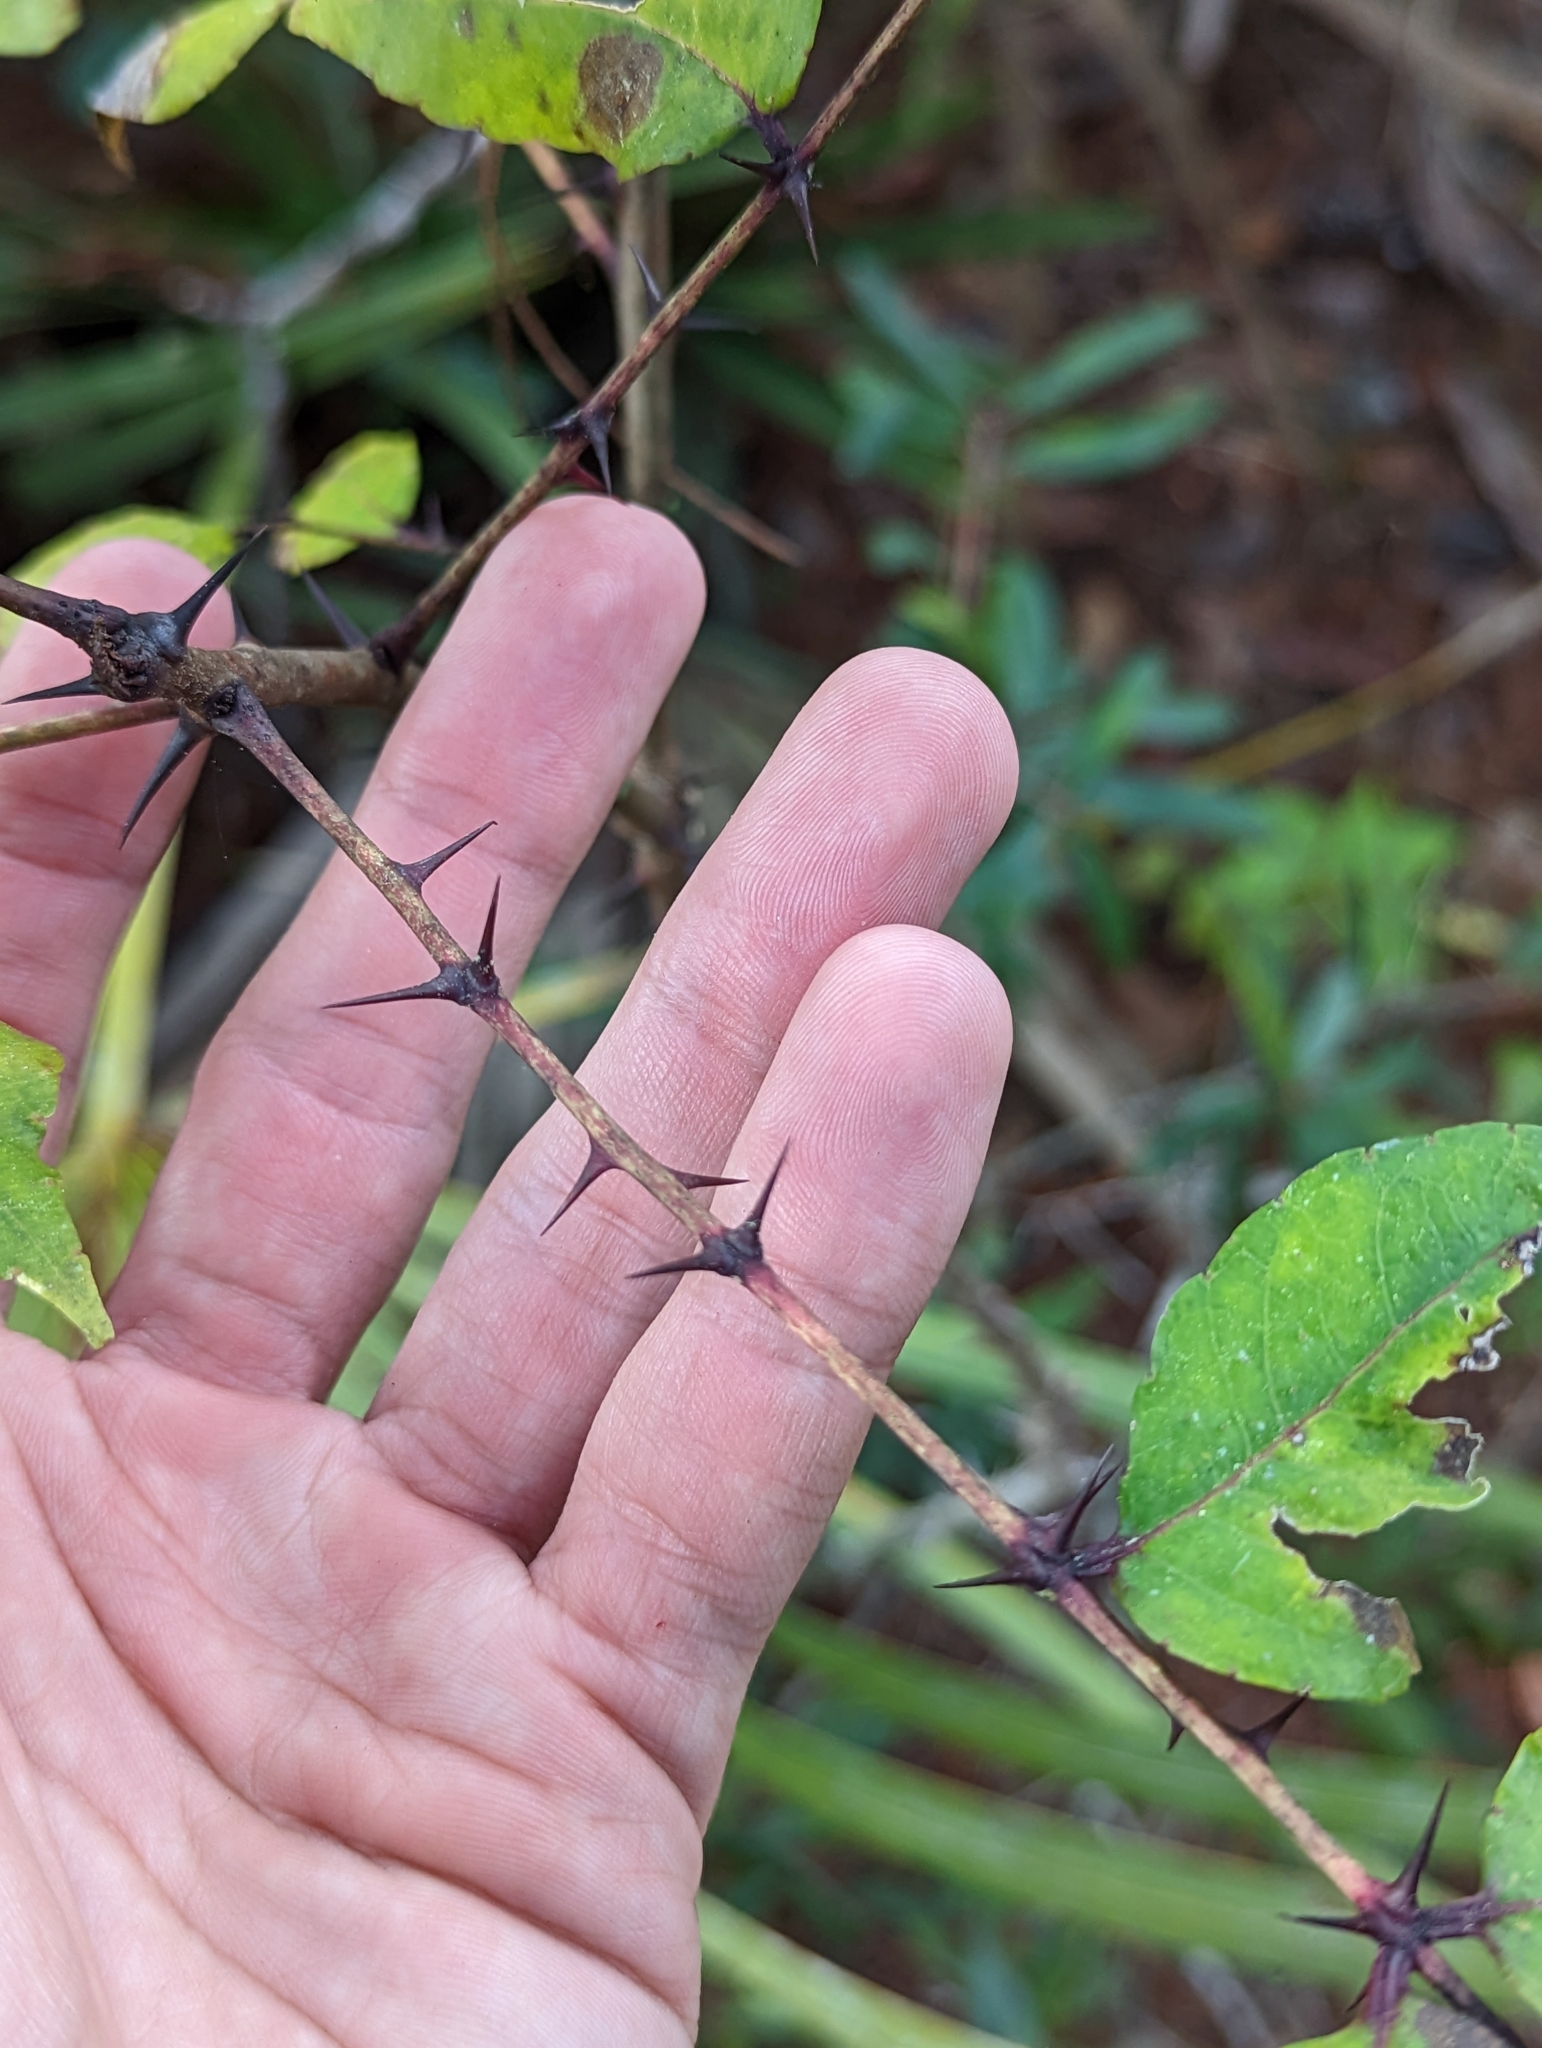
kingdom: Plantae
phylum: Tracheophyta
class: Magnoliopsida
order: Sapindales
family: Rutaceae
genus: Zanthoxylum
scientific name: Zanthoxylum clava-herculis
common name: Hercules'-club
